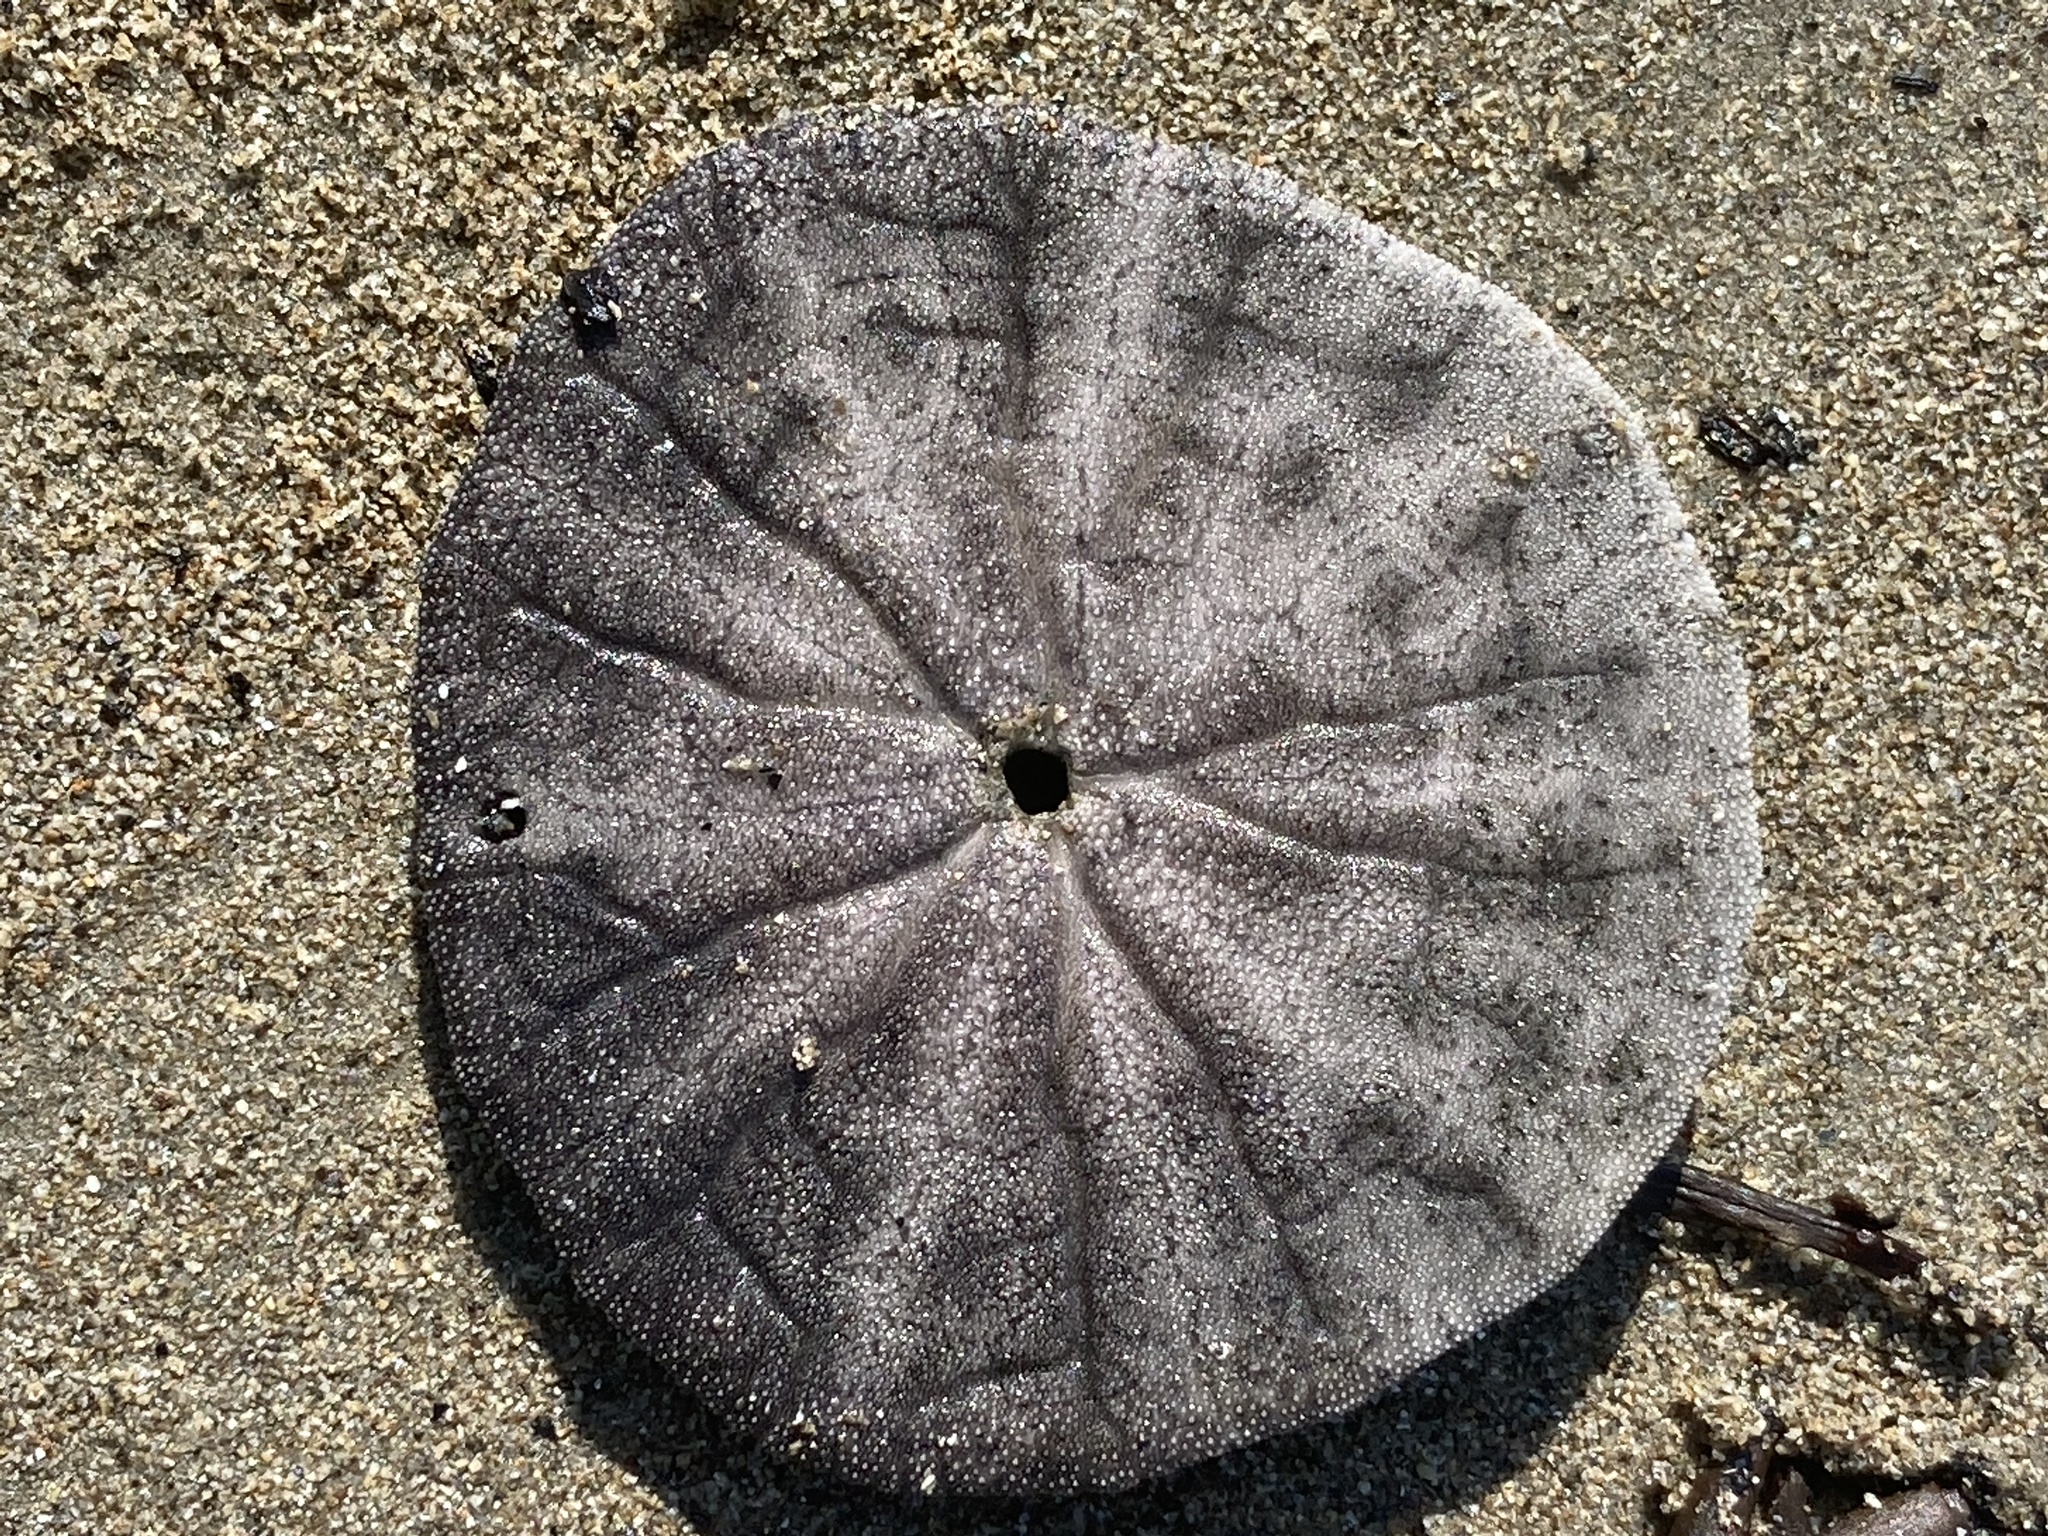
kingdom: Animalia
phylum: Echinodermata
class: Echinoidea
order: Echinolampadacea
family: Dendrasteridae
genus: Dendraster
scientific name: Dendraster excentricus
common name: Eccentric sand dollar sea urchin
